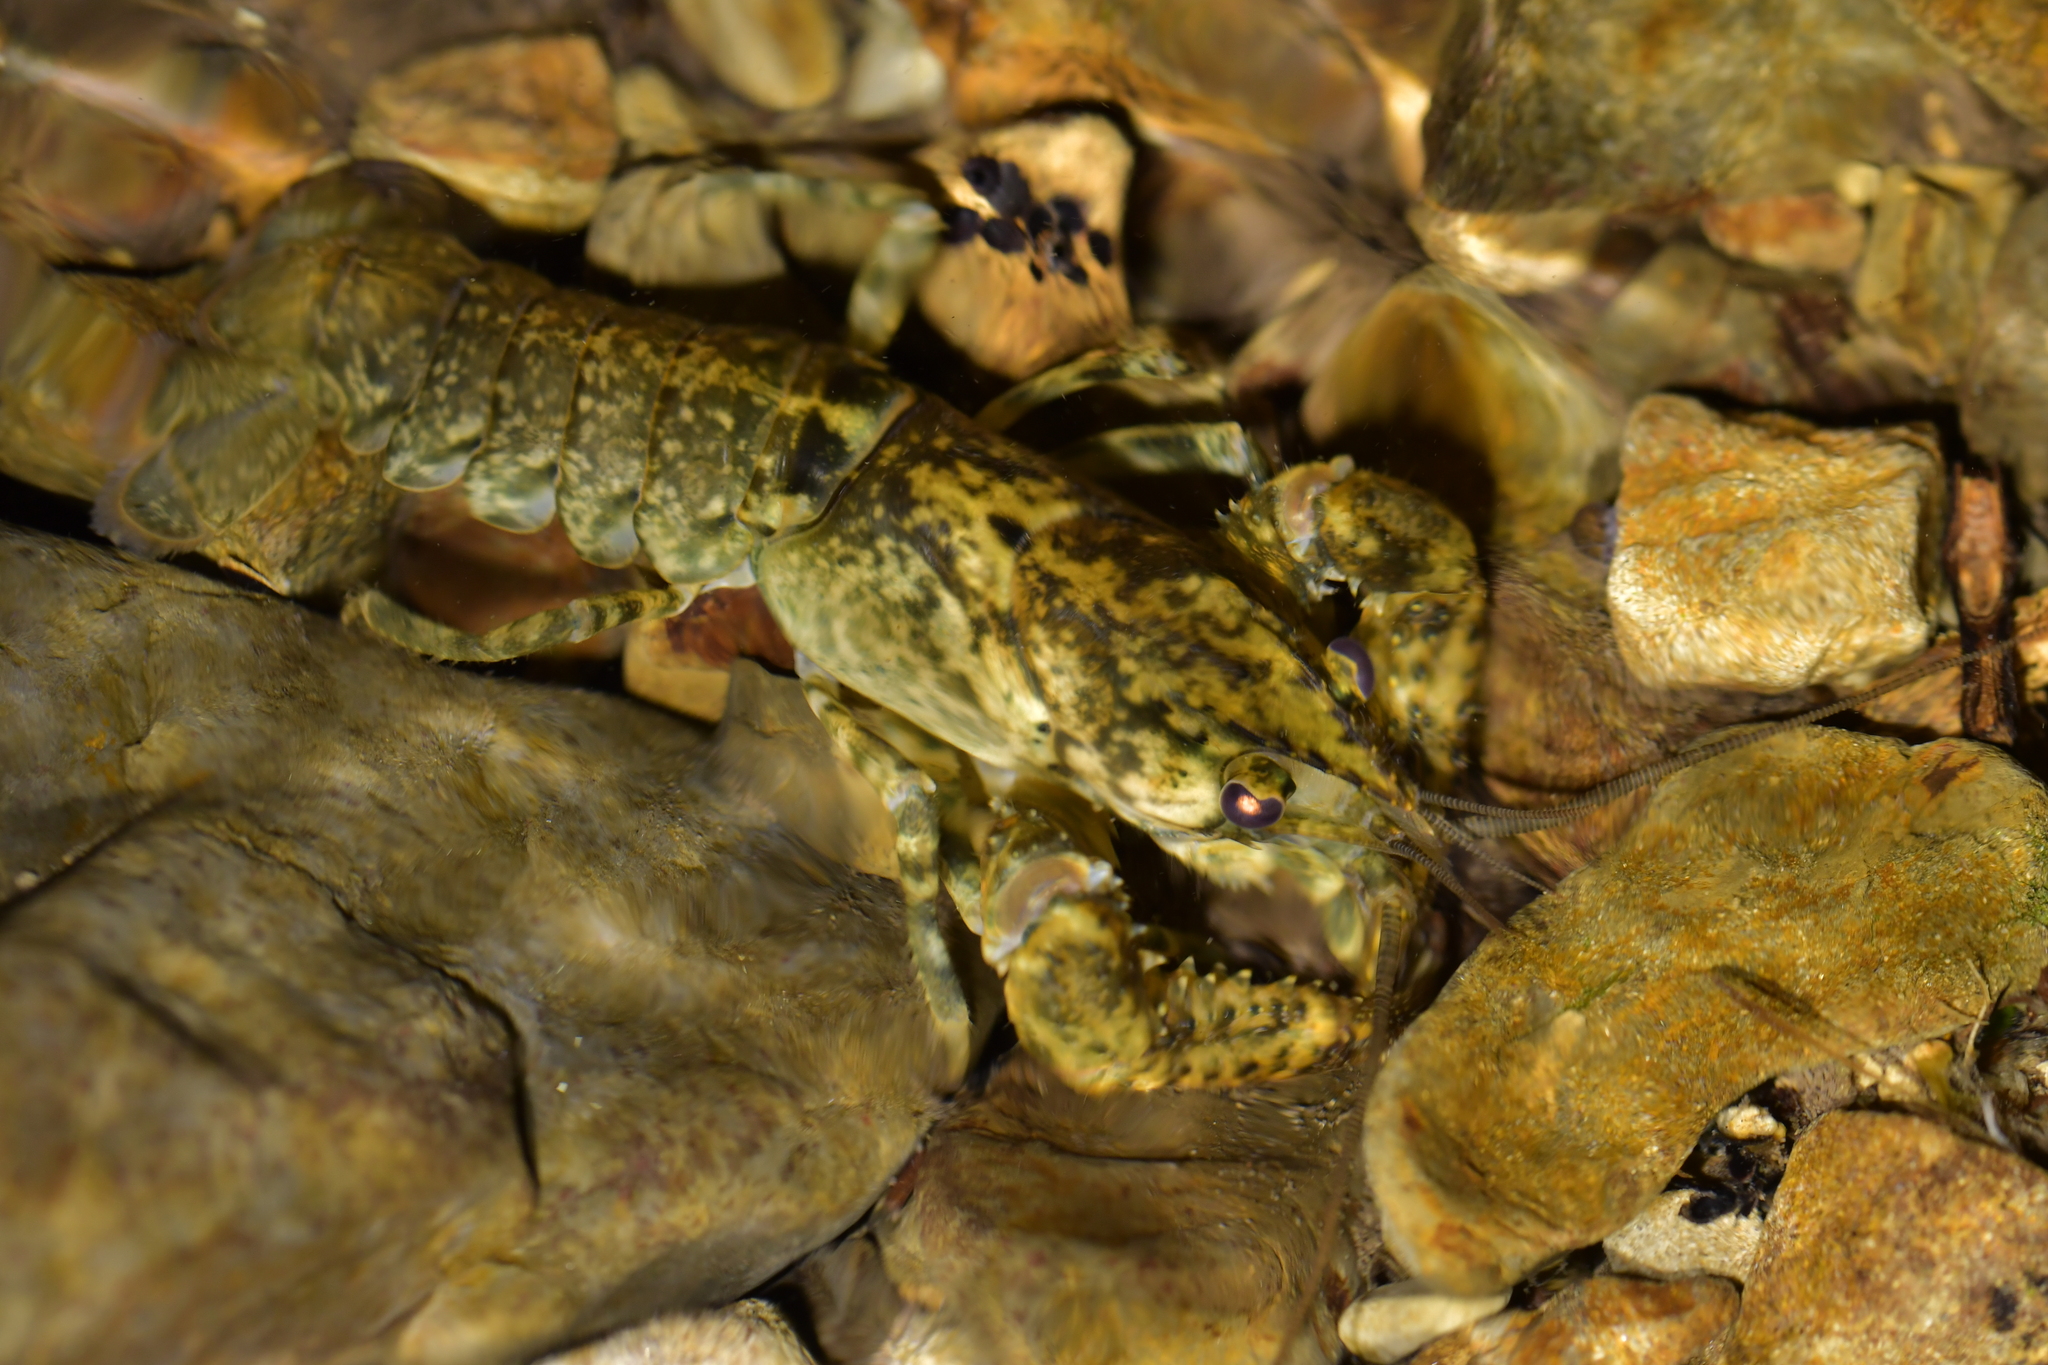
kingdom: Animalia
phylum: Arthropoda
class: Malacostraca
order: Decapoda
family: Parastacidae
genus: Paranephrops
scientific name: Paranephrops planifrons
